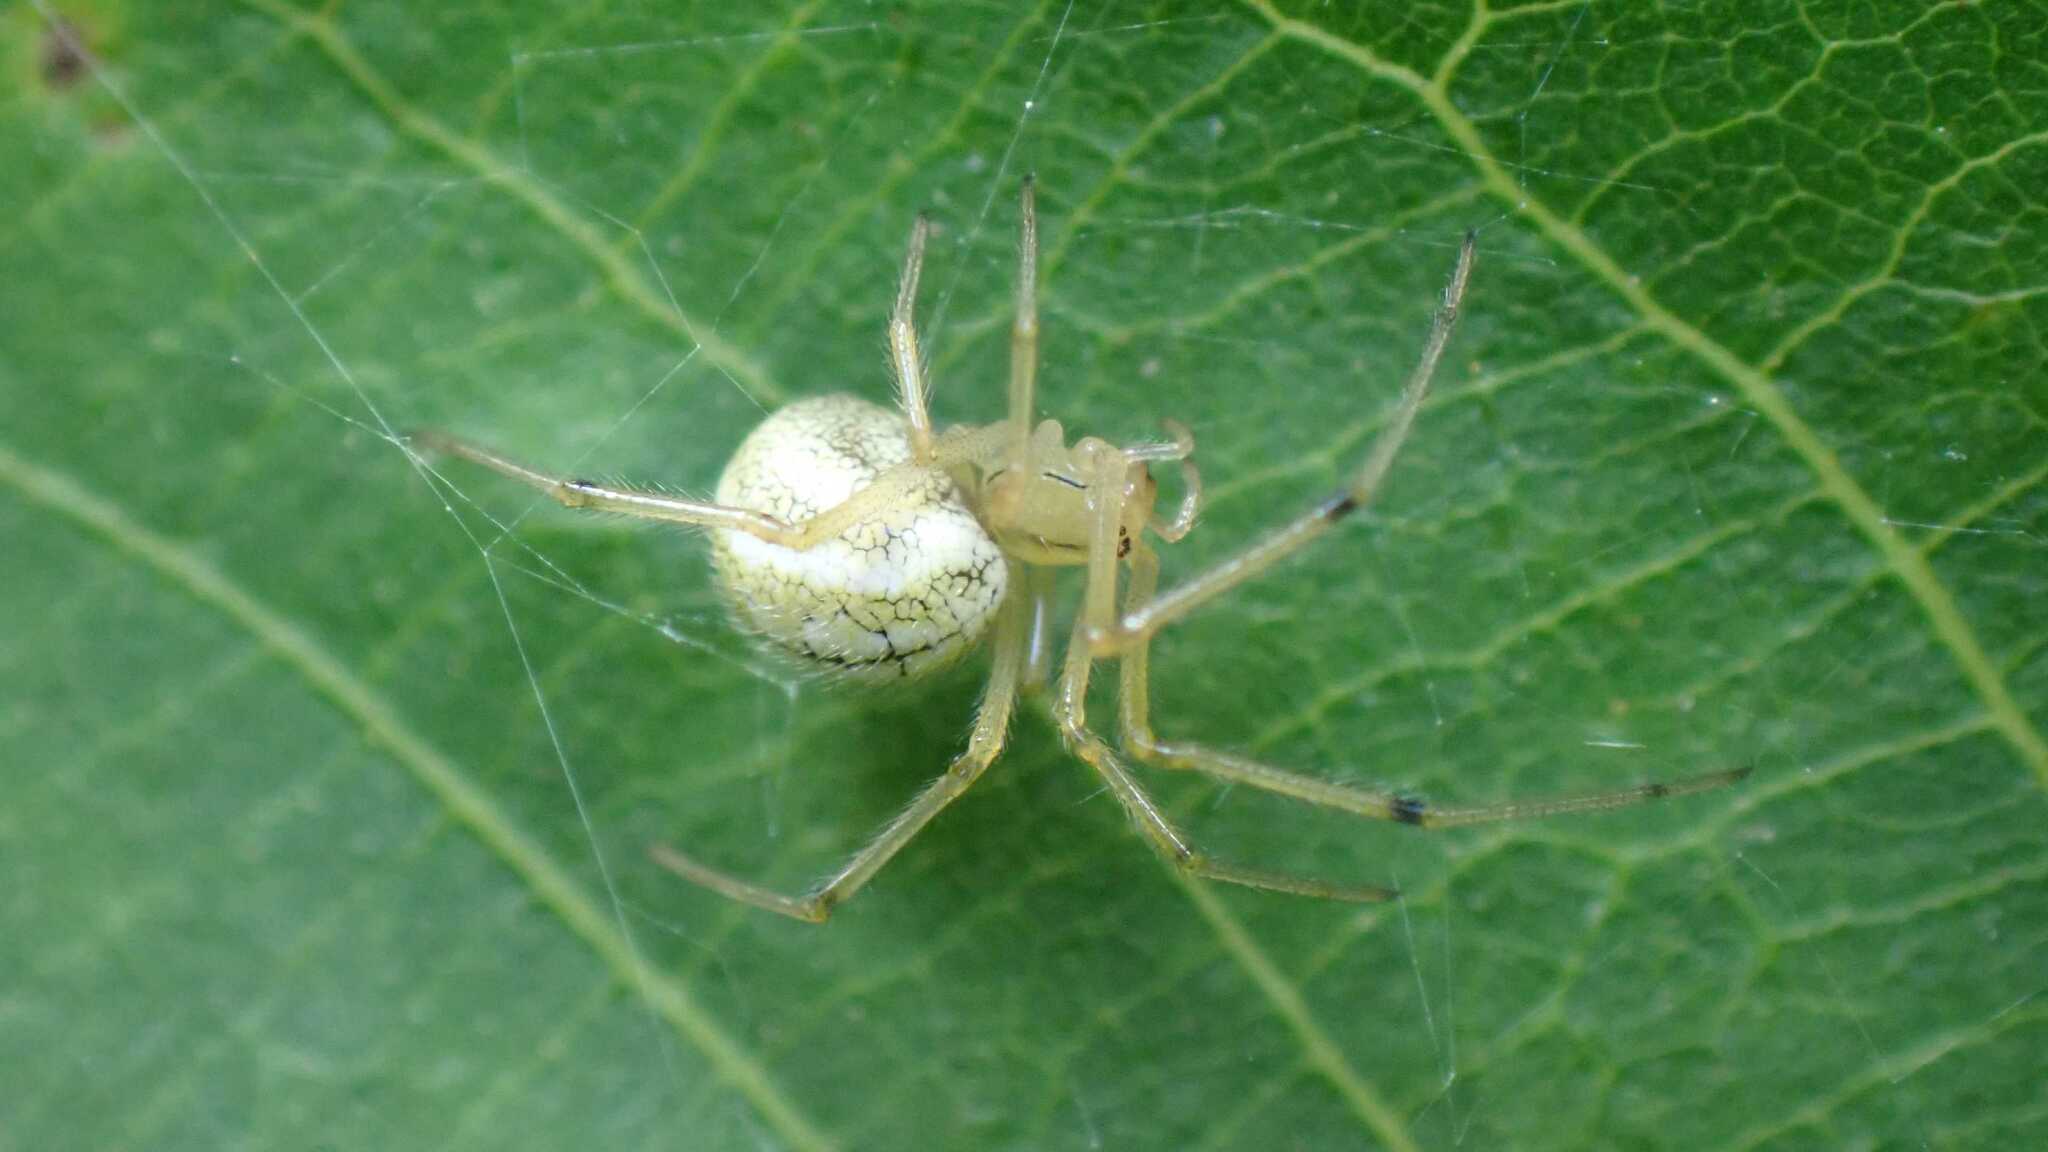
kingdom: Animalia
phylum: Arthropoda
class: Arachnida
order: Araneae
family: Theridiidae
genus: Enoplognatha
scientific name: Enoplognatha
